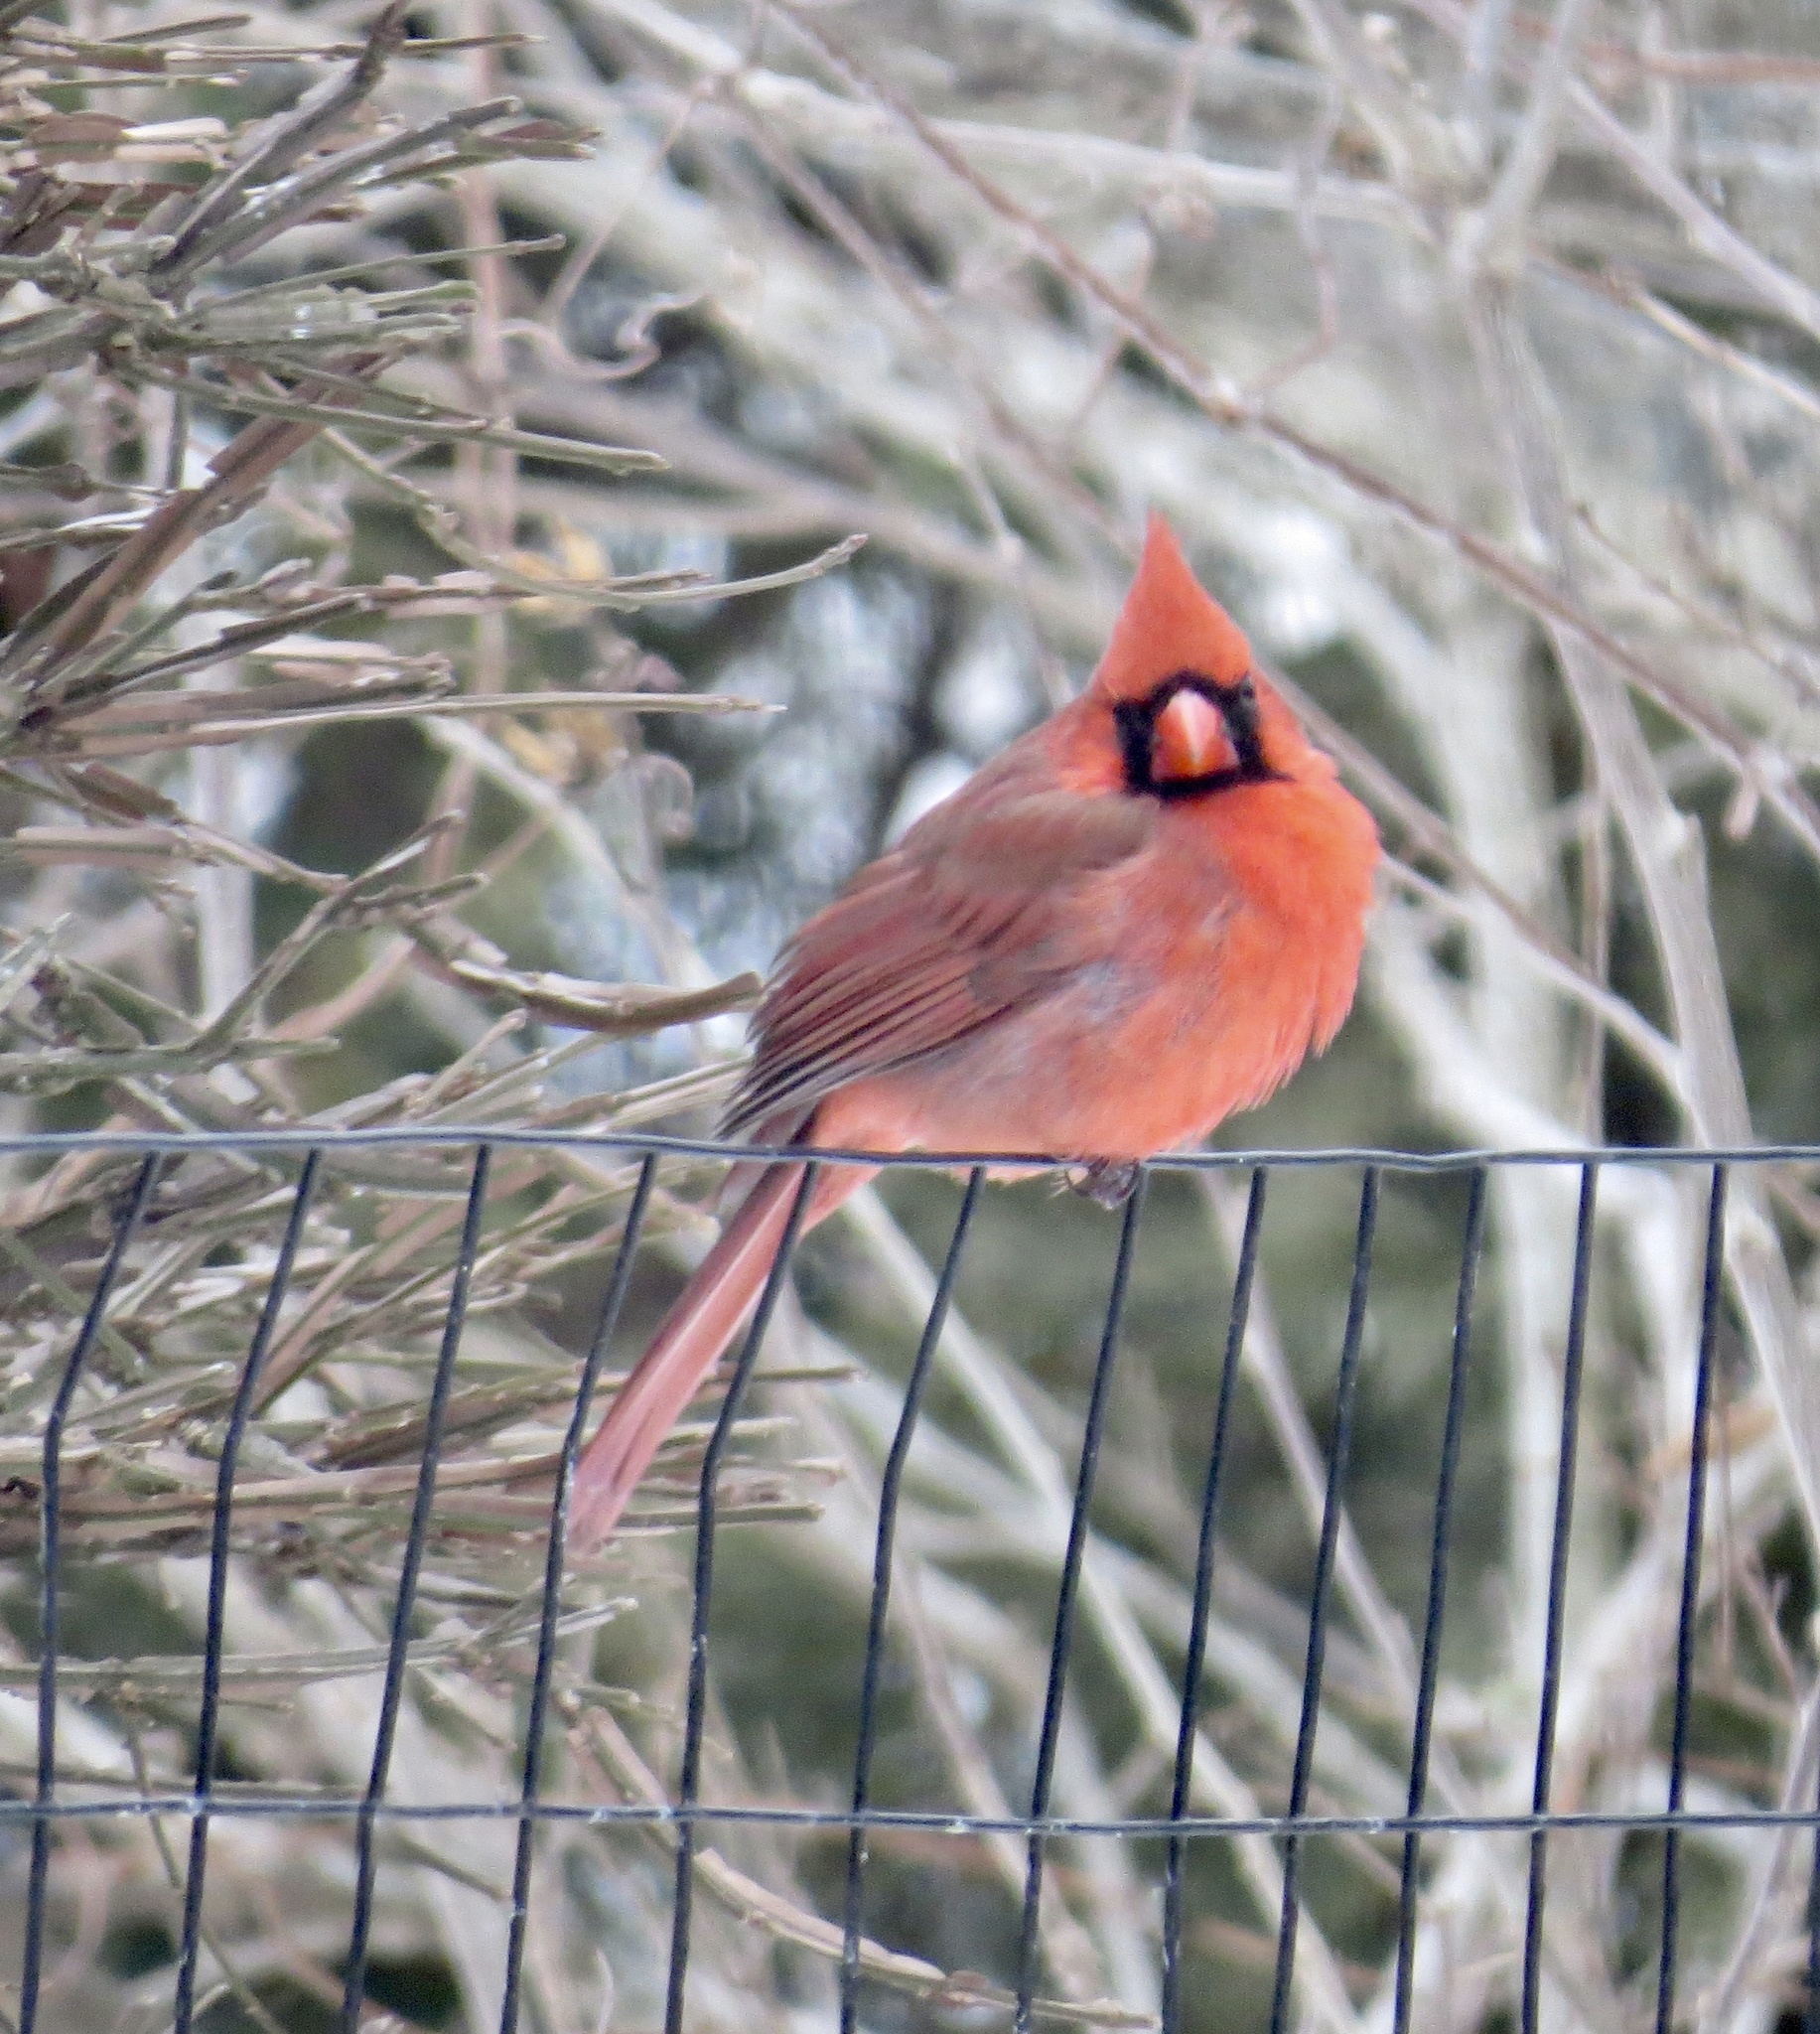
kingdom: Animalia
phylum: Chordata
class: Aves
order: Passeriformes
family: Cardinalidae
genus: Cardinalis
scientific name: Cardinalis cardinalis
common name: Northern cardinal
